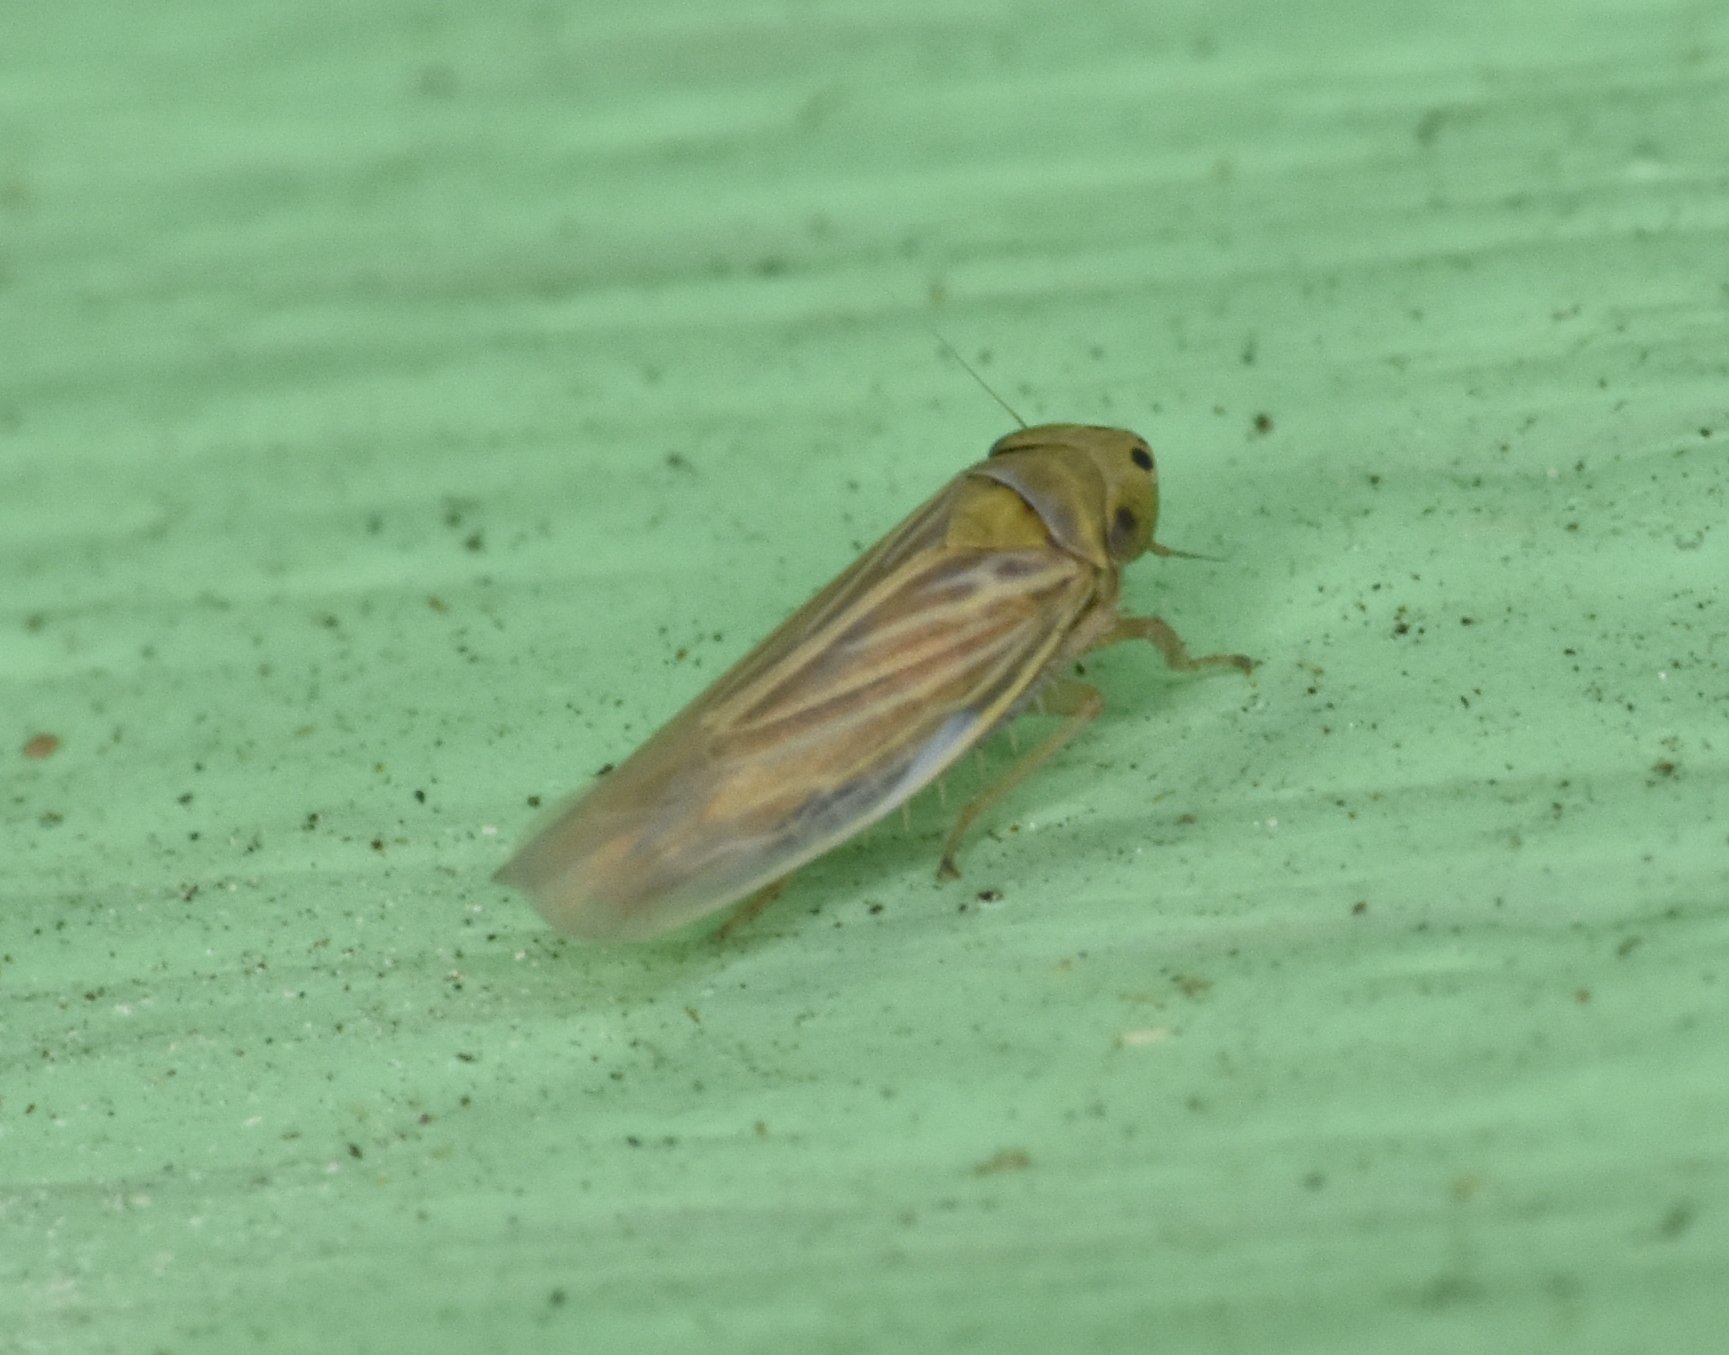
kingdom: Animalia
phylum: Arthropoda
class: Insecta
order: Hemiptera
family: Cicadellidae
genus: Graminella
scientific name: Graminella cognita
